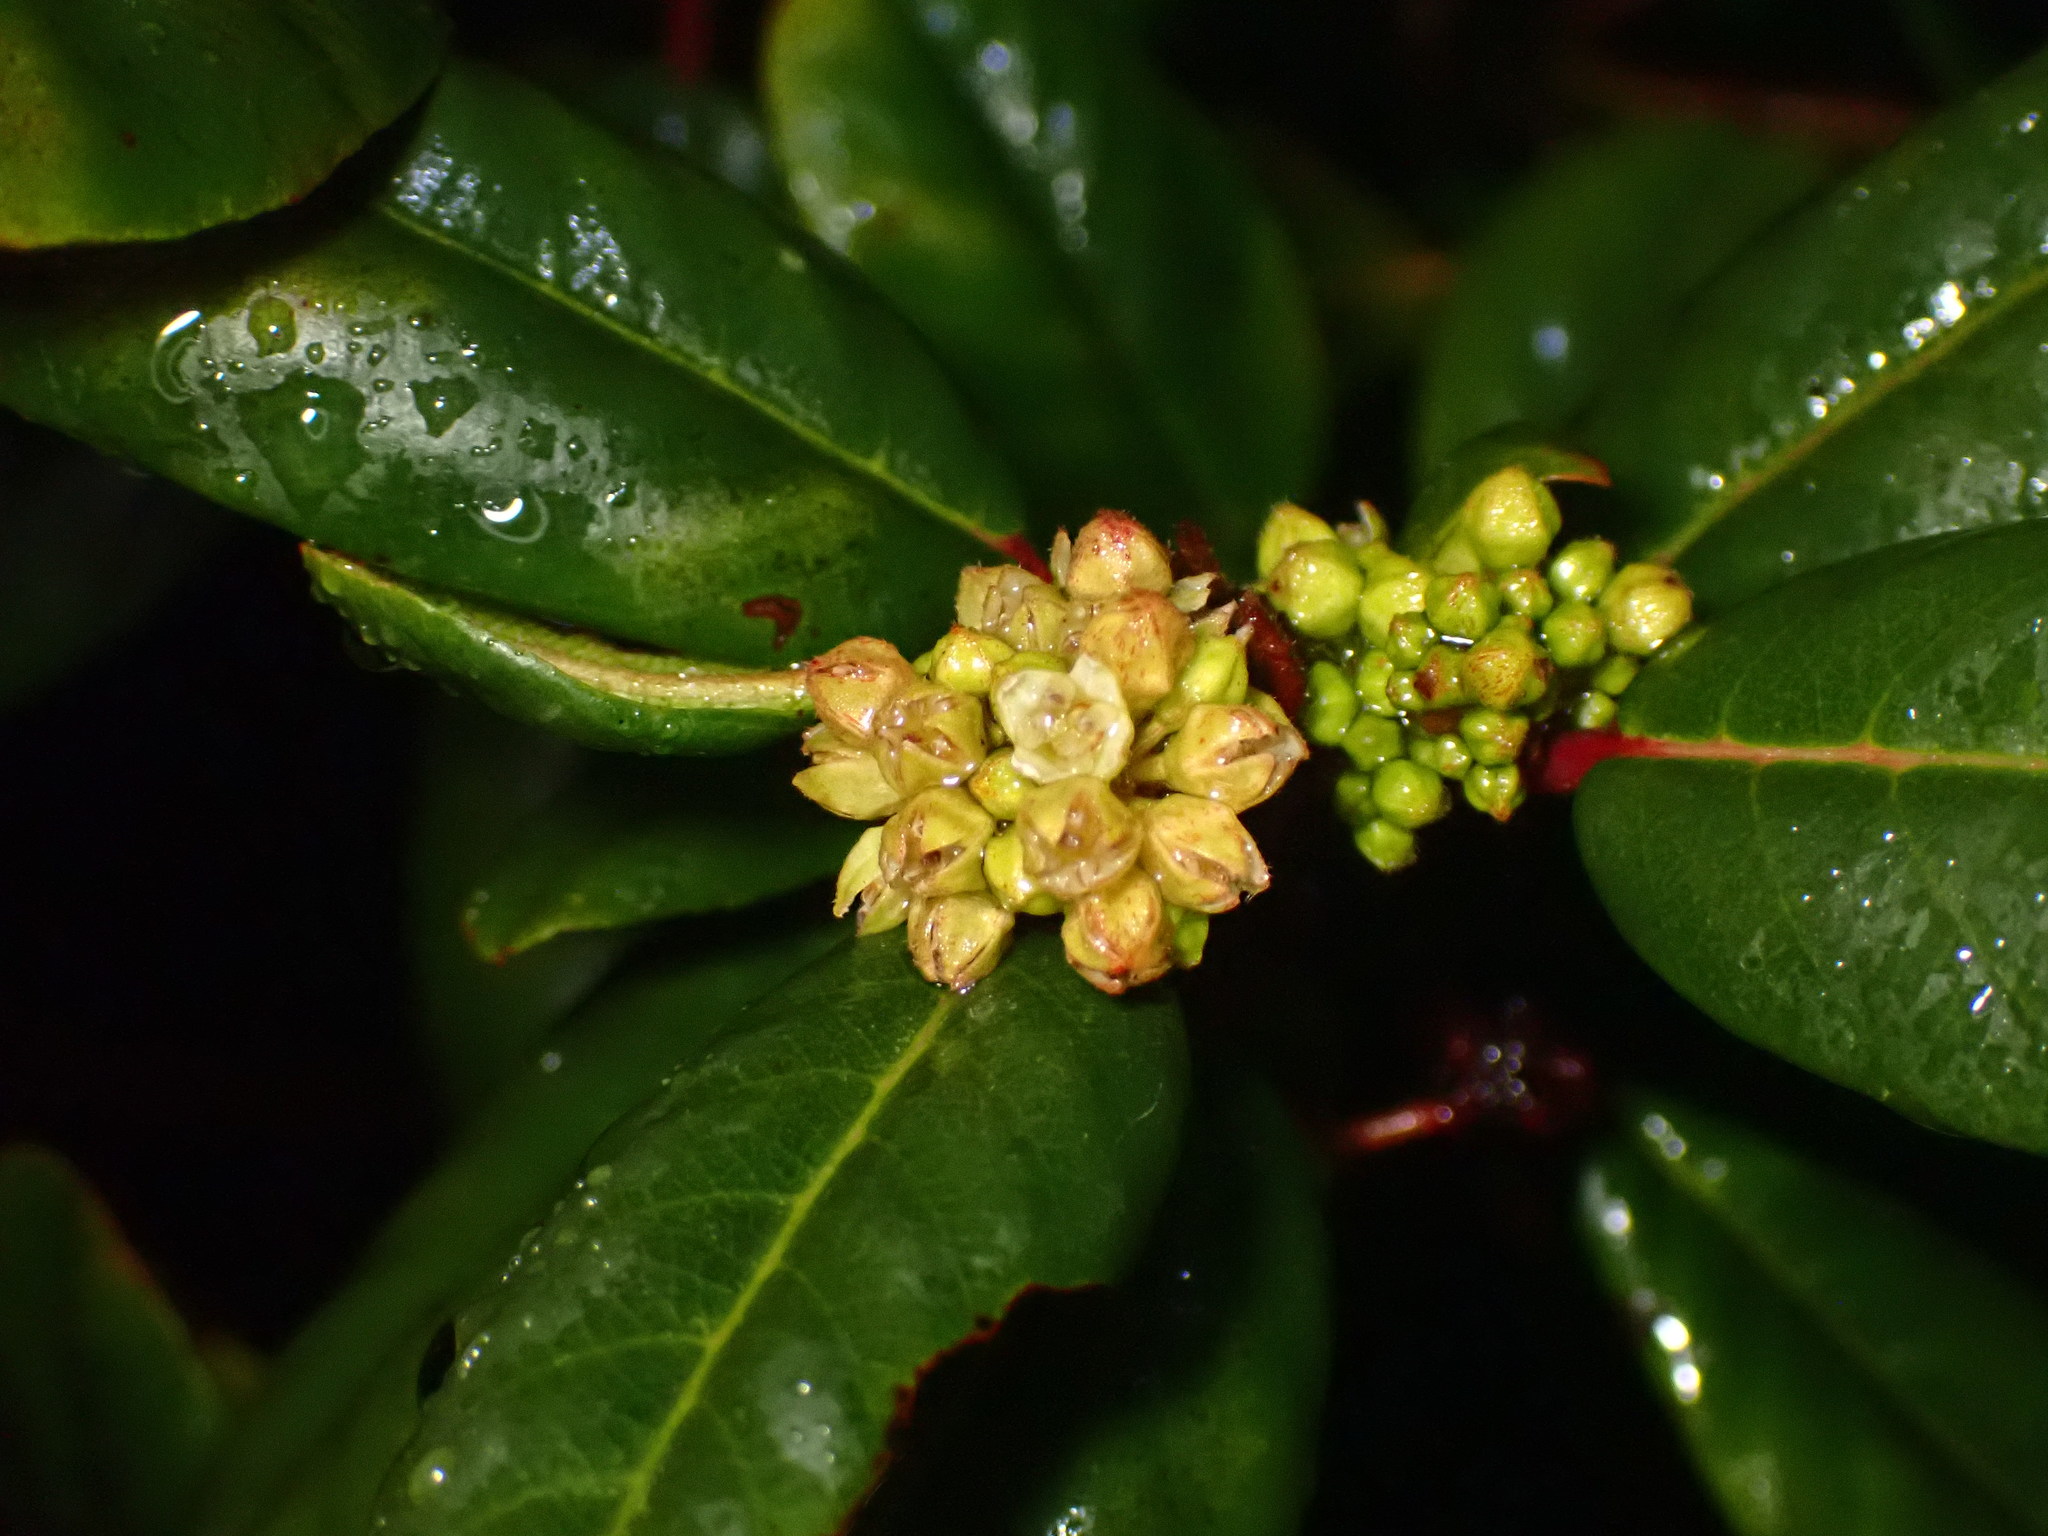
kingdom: Plantae
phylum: Tracheophyta
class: Magnoliopsida
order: Rosales
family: Rhamnaceae
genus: Frangula
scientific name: Frangula californica
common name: California buckthorn
